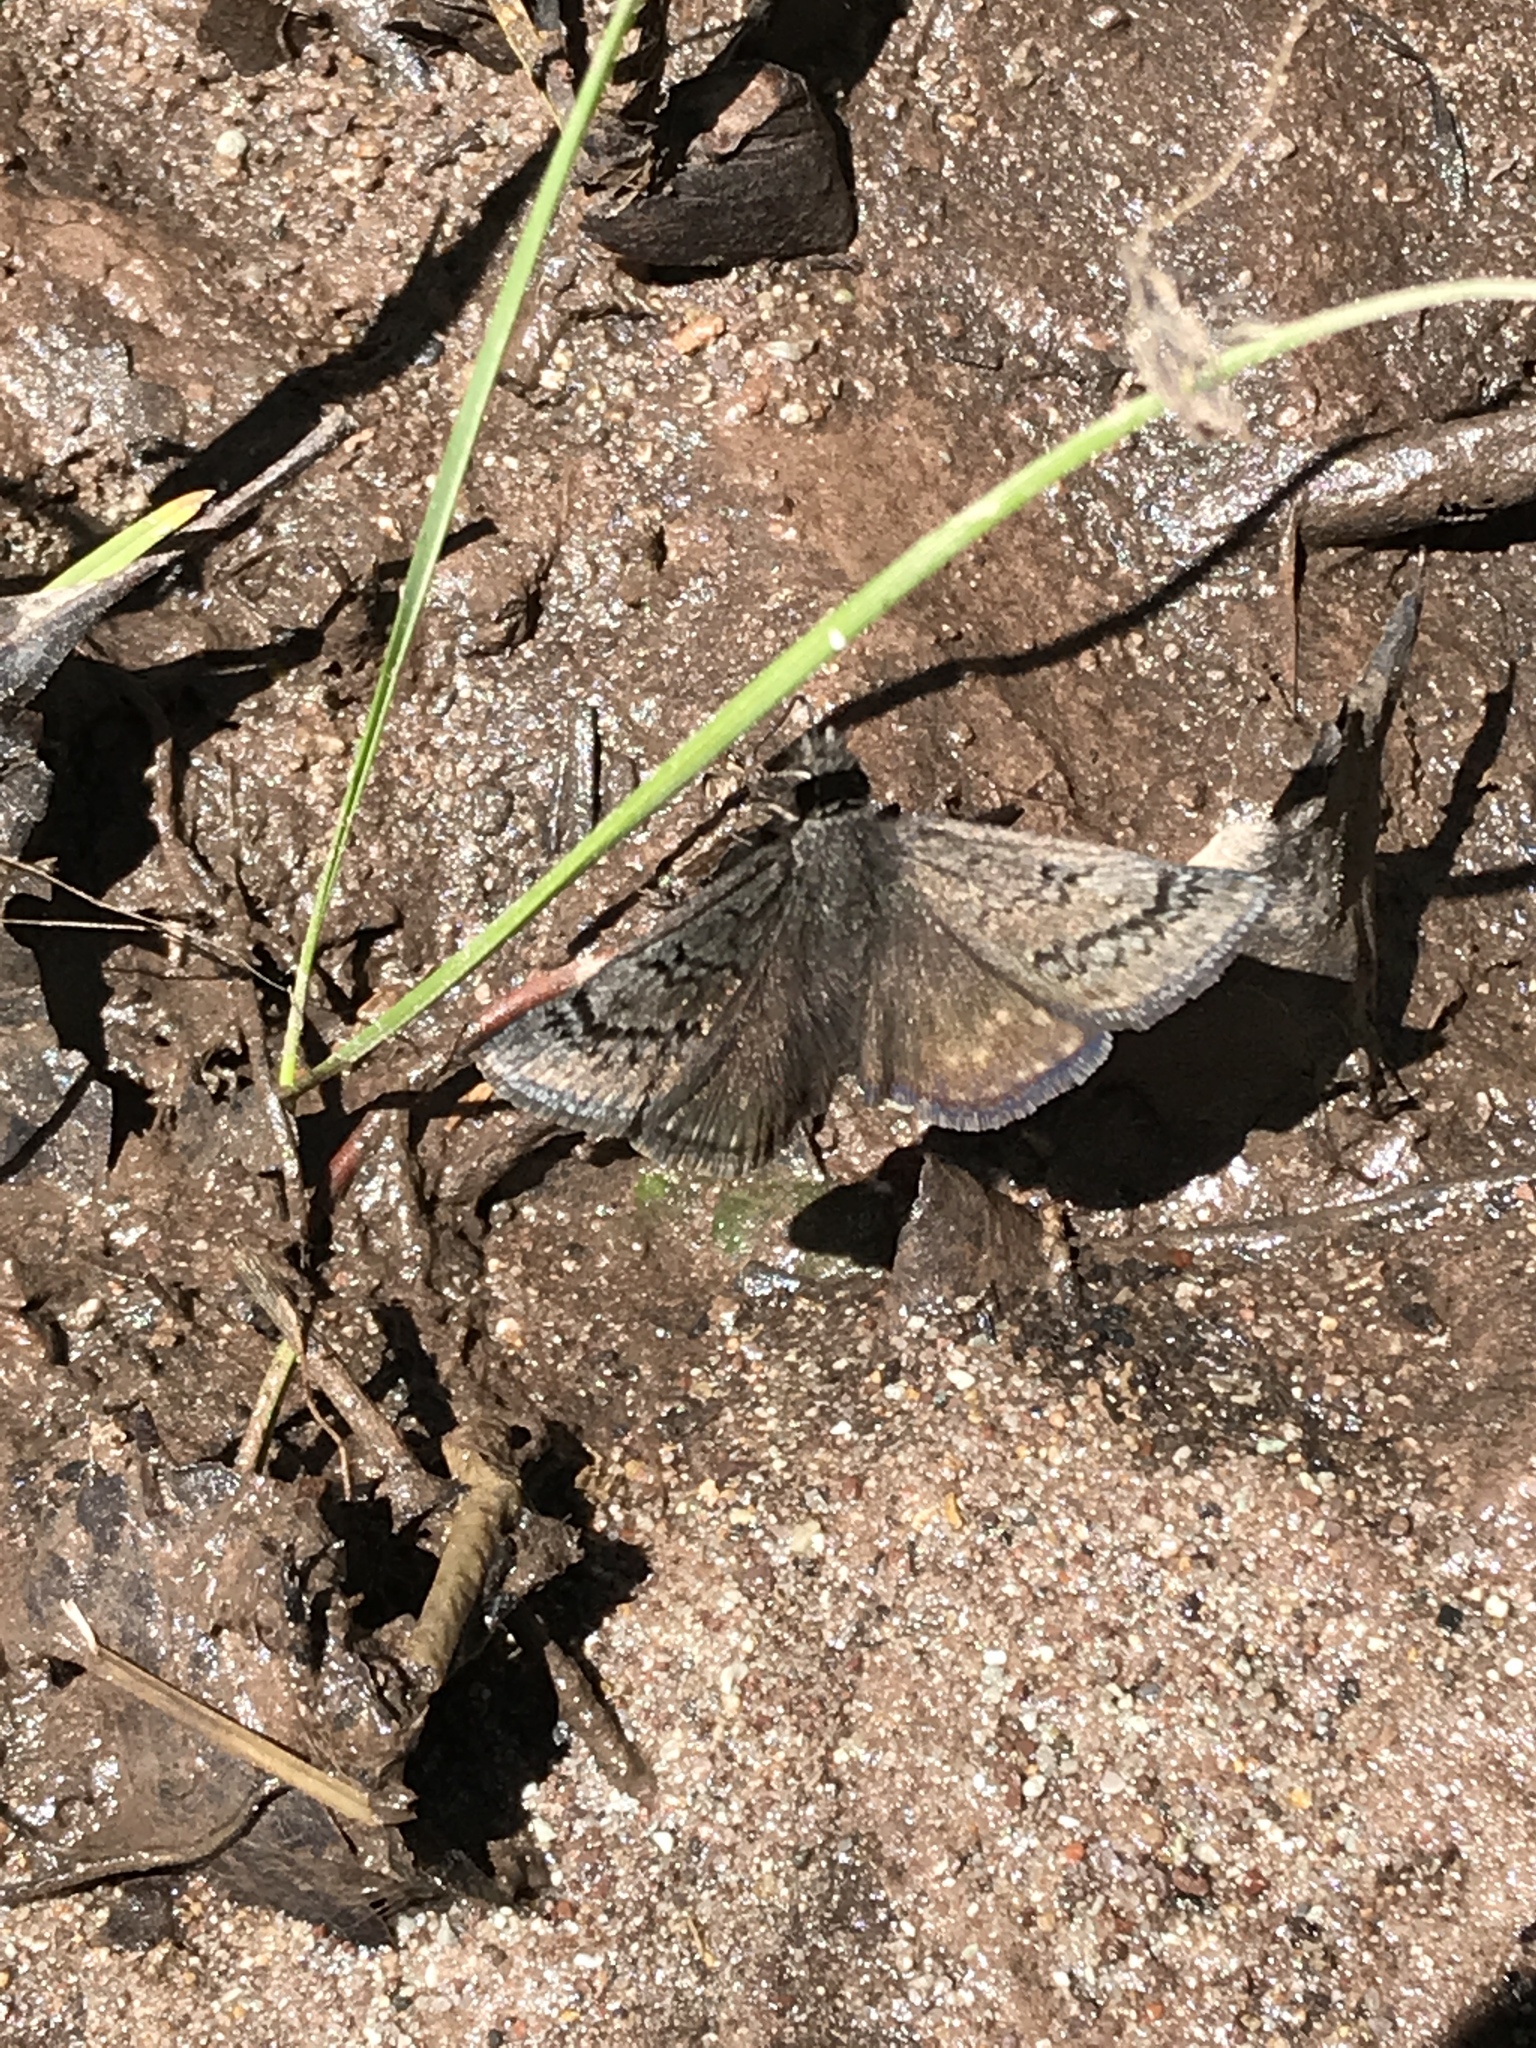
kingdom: Animalia
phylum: Arthropoda
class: Insecta
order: Lepidoptera
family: Hesperiidae
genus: Erynnis
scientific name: Erynnis brizo
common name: Sleepy duskywing
